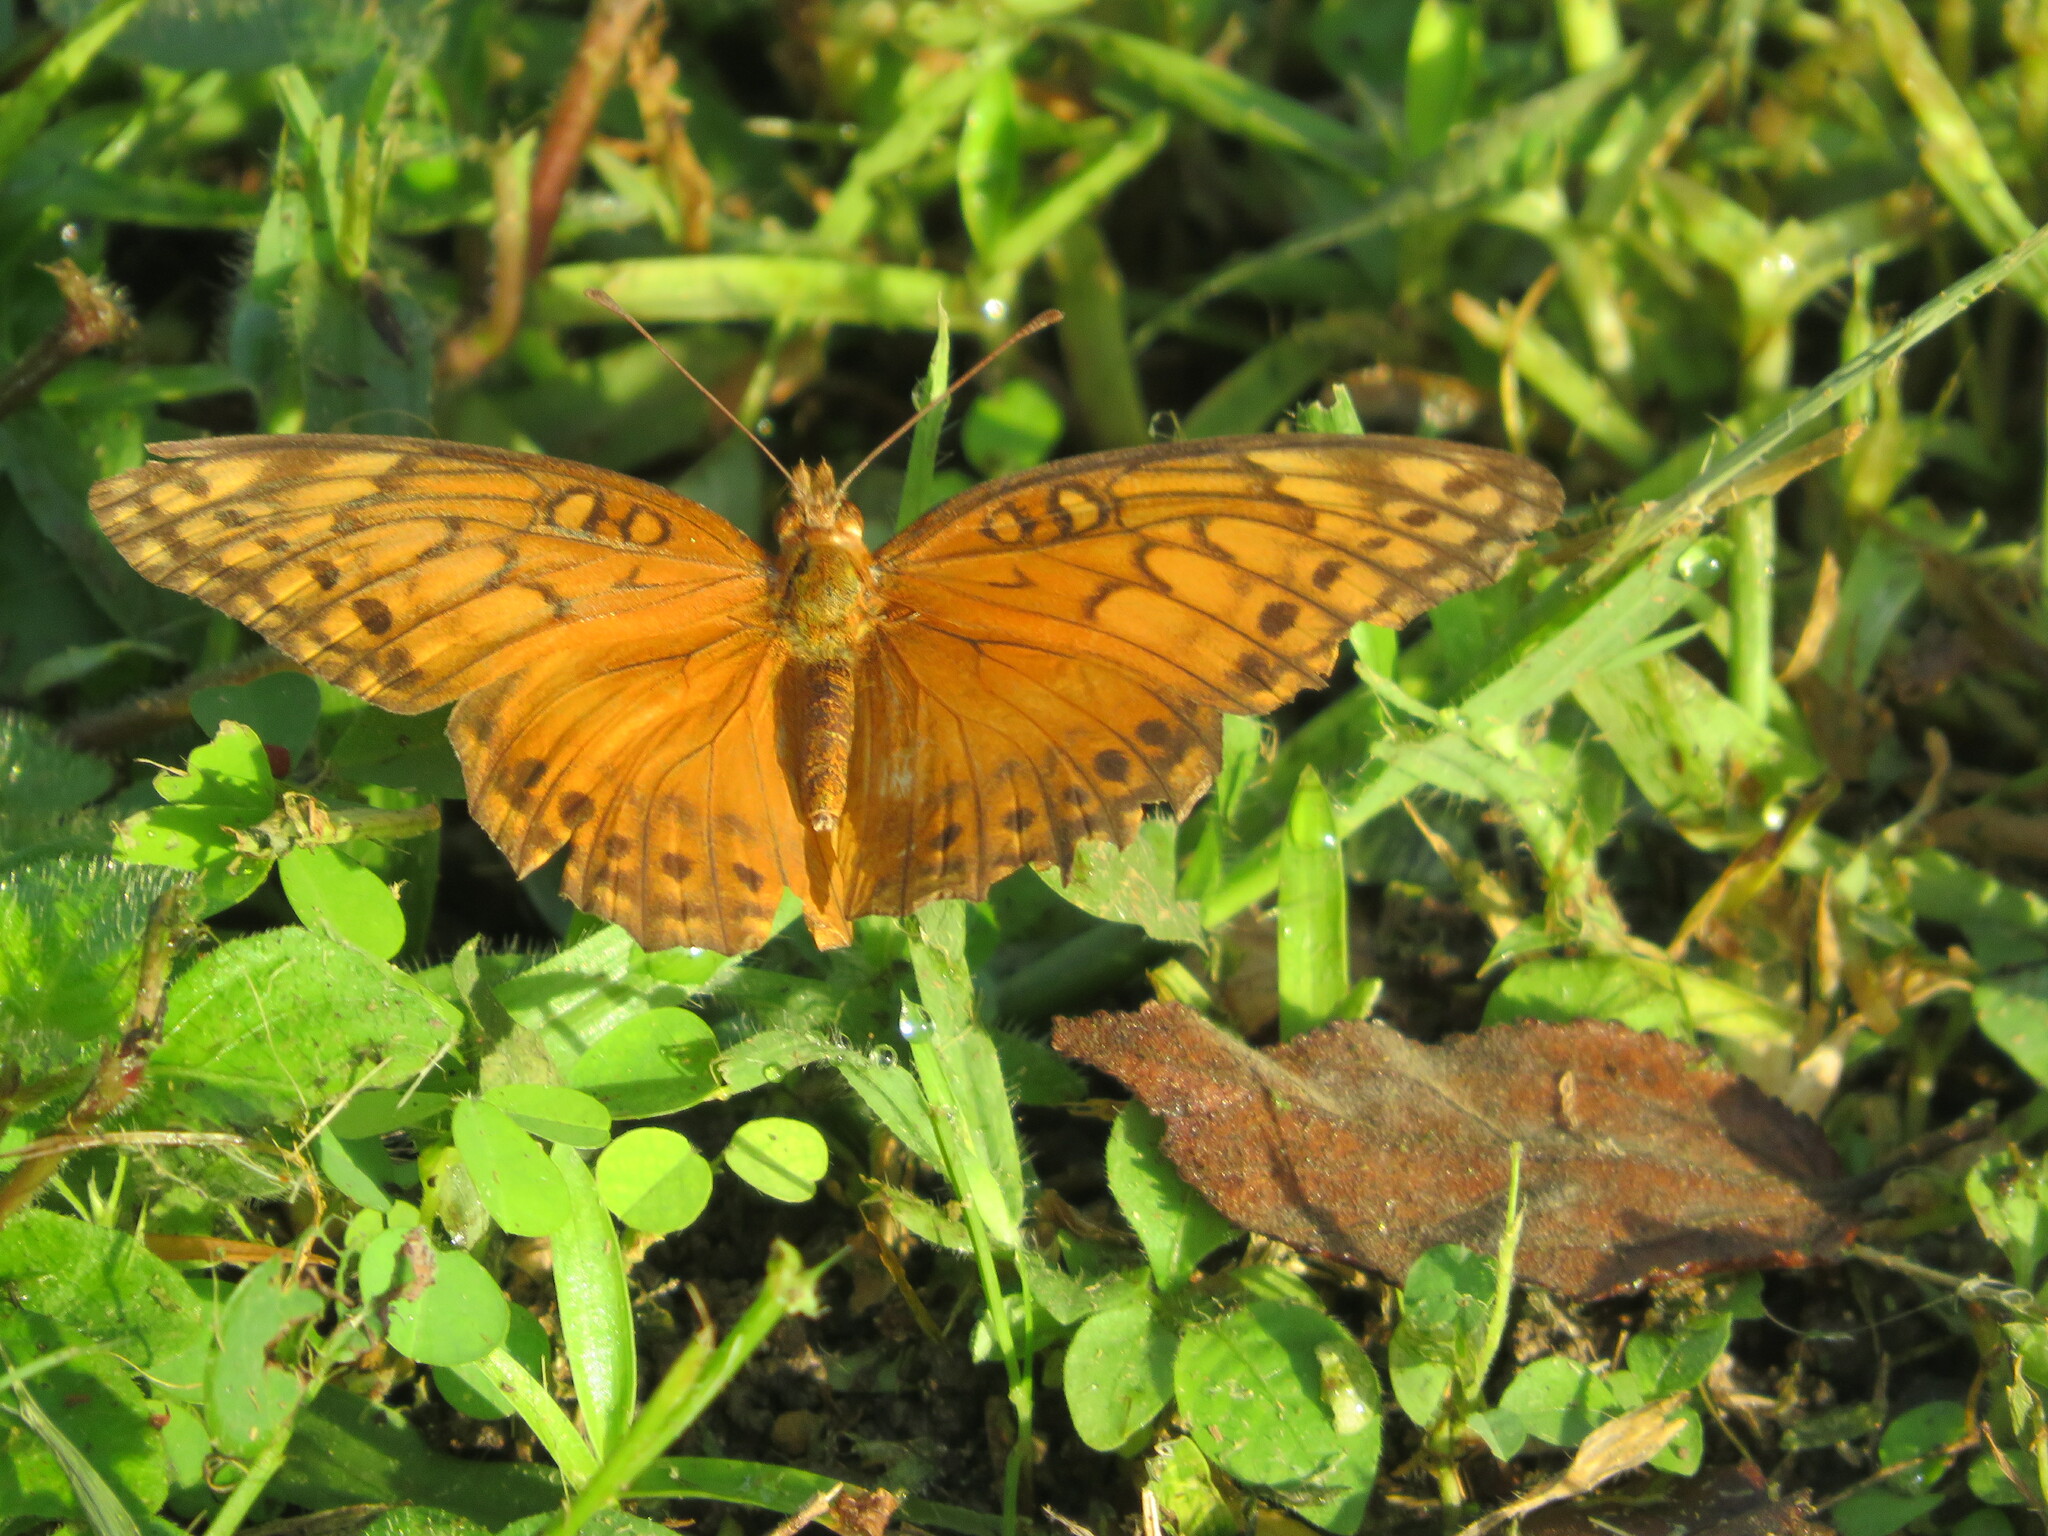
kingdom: Animalia
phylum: Arthropoda
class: Insecta
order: Lepidoptera
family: Nymphalidae
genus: Euptoieta
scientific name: Euptoieta hegesia
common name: Mexican fritillary
